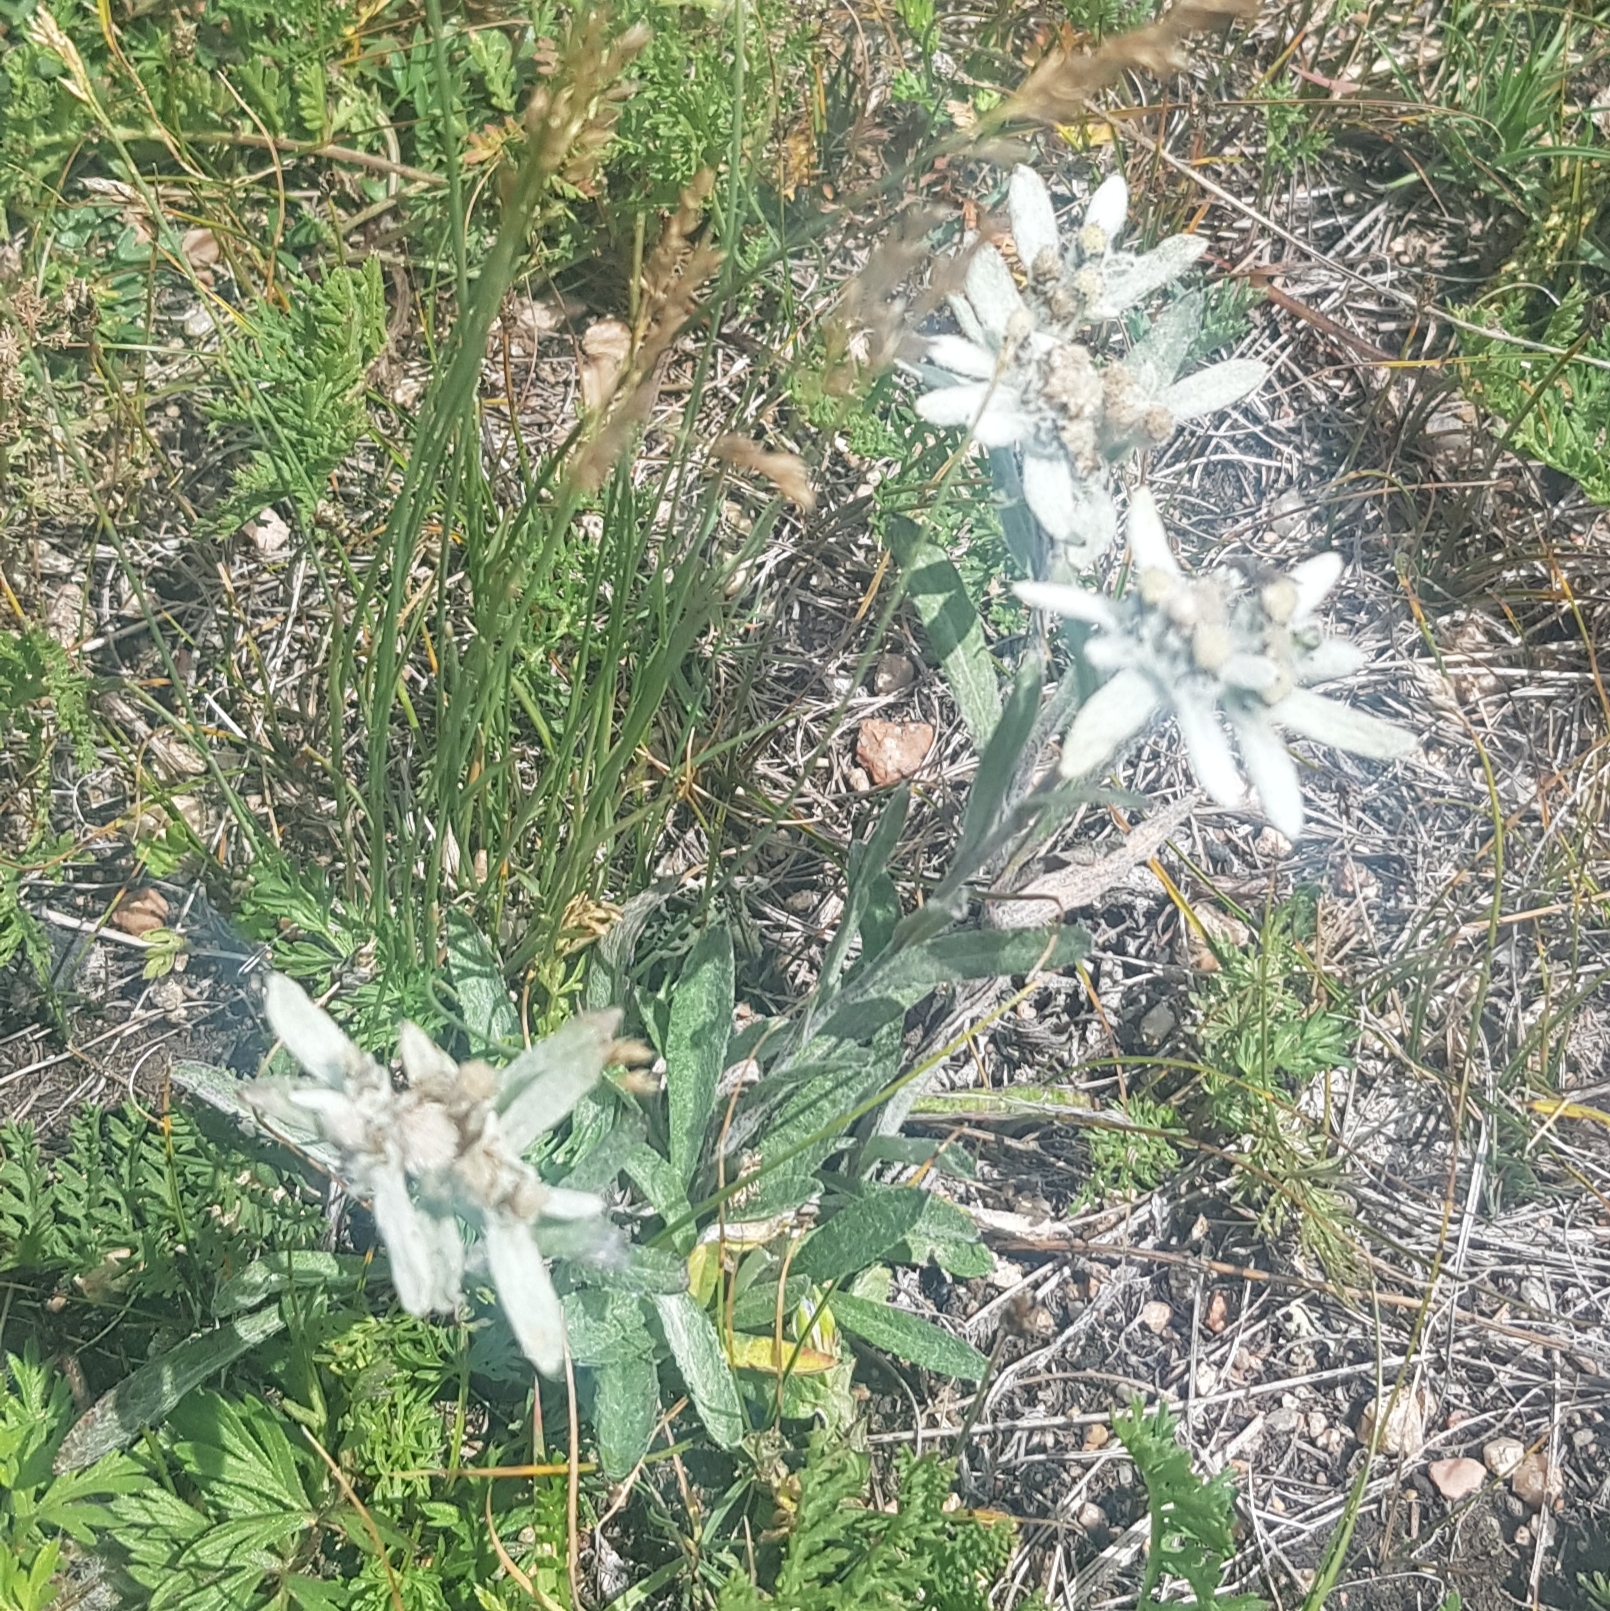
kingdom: Plantae
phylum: Tracheophyta
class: Magnoliopsida
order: Asterales
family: Asteraceae
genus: Leontopodium
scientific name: Leontopodium campestre
